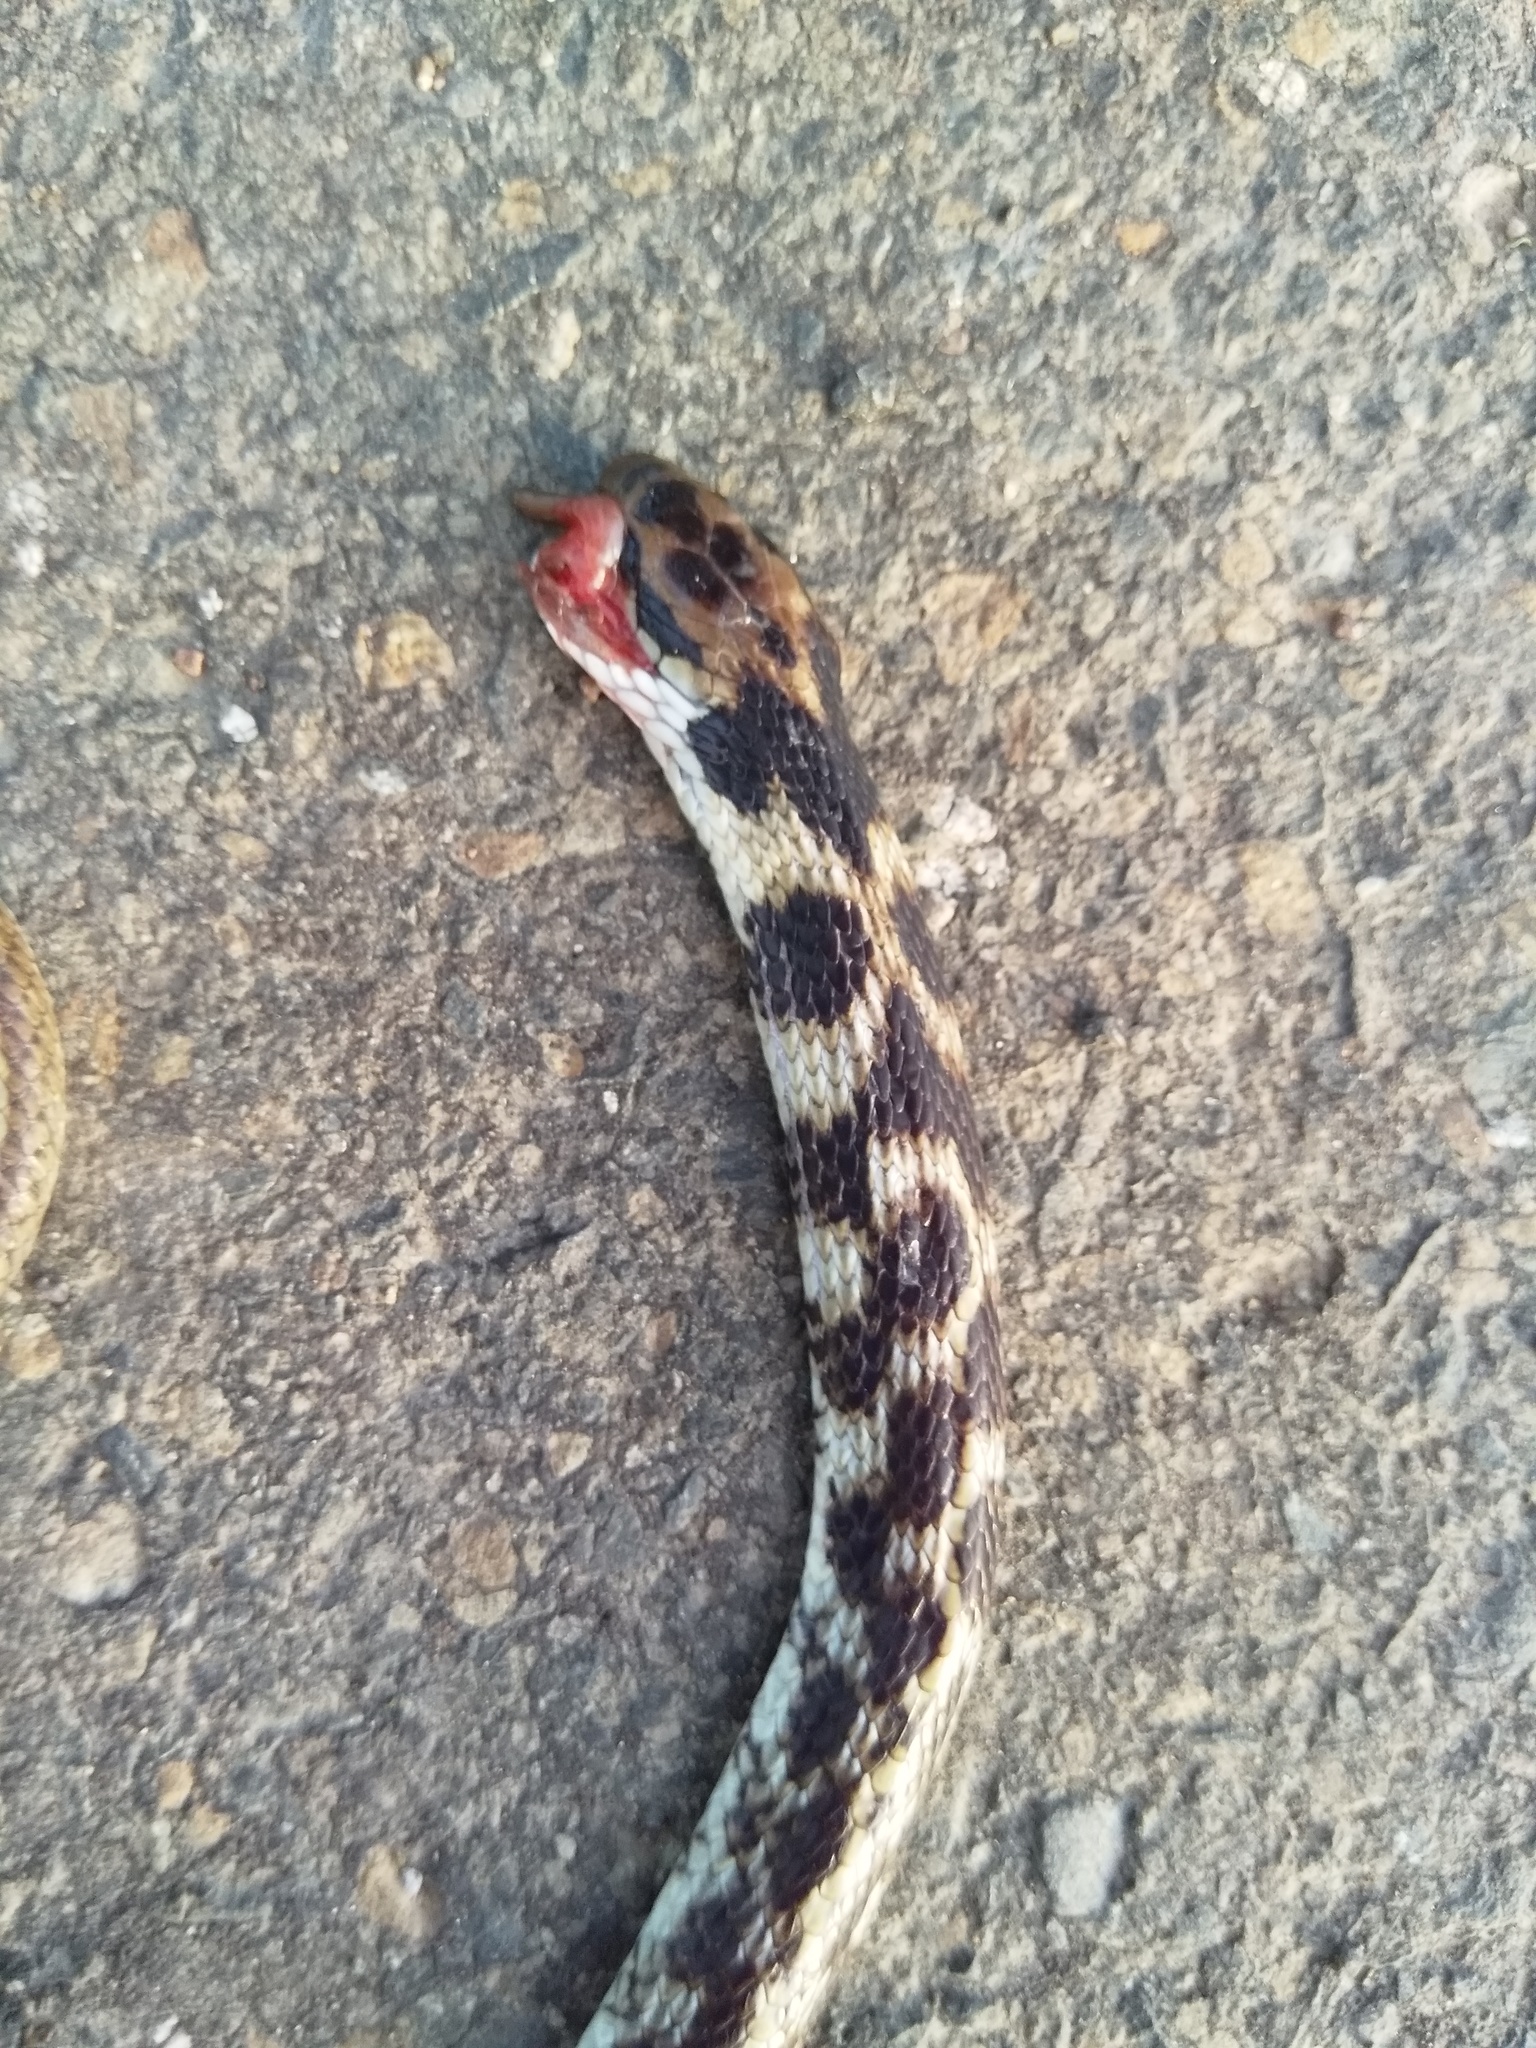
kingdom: Animalia
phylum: Chordata
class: Squamata
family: Colubridae
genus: Boiga
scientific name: Boiga westermanni
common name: Indian egg-eating snake
